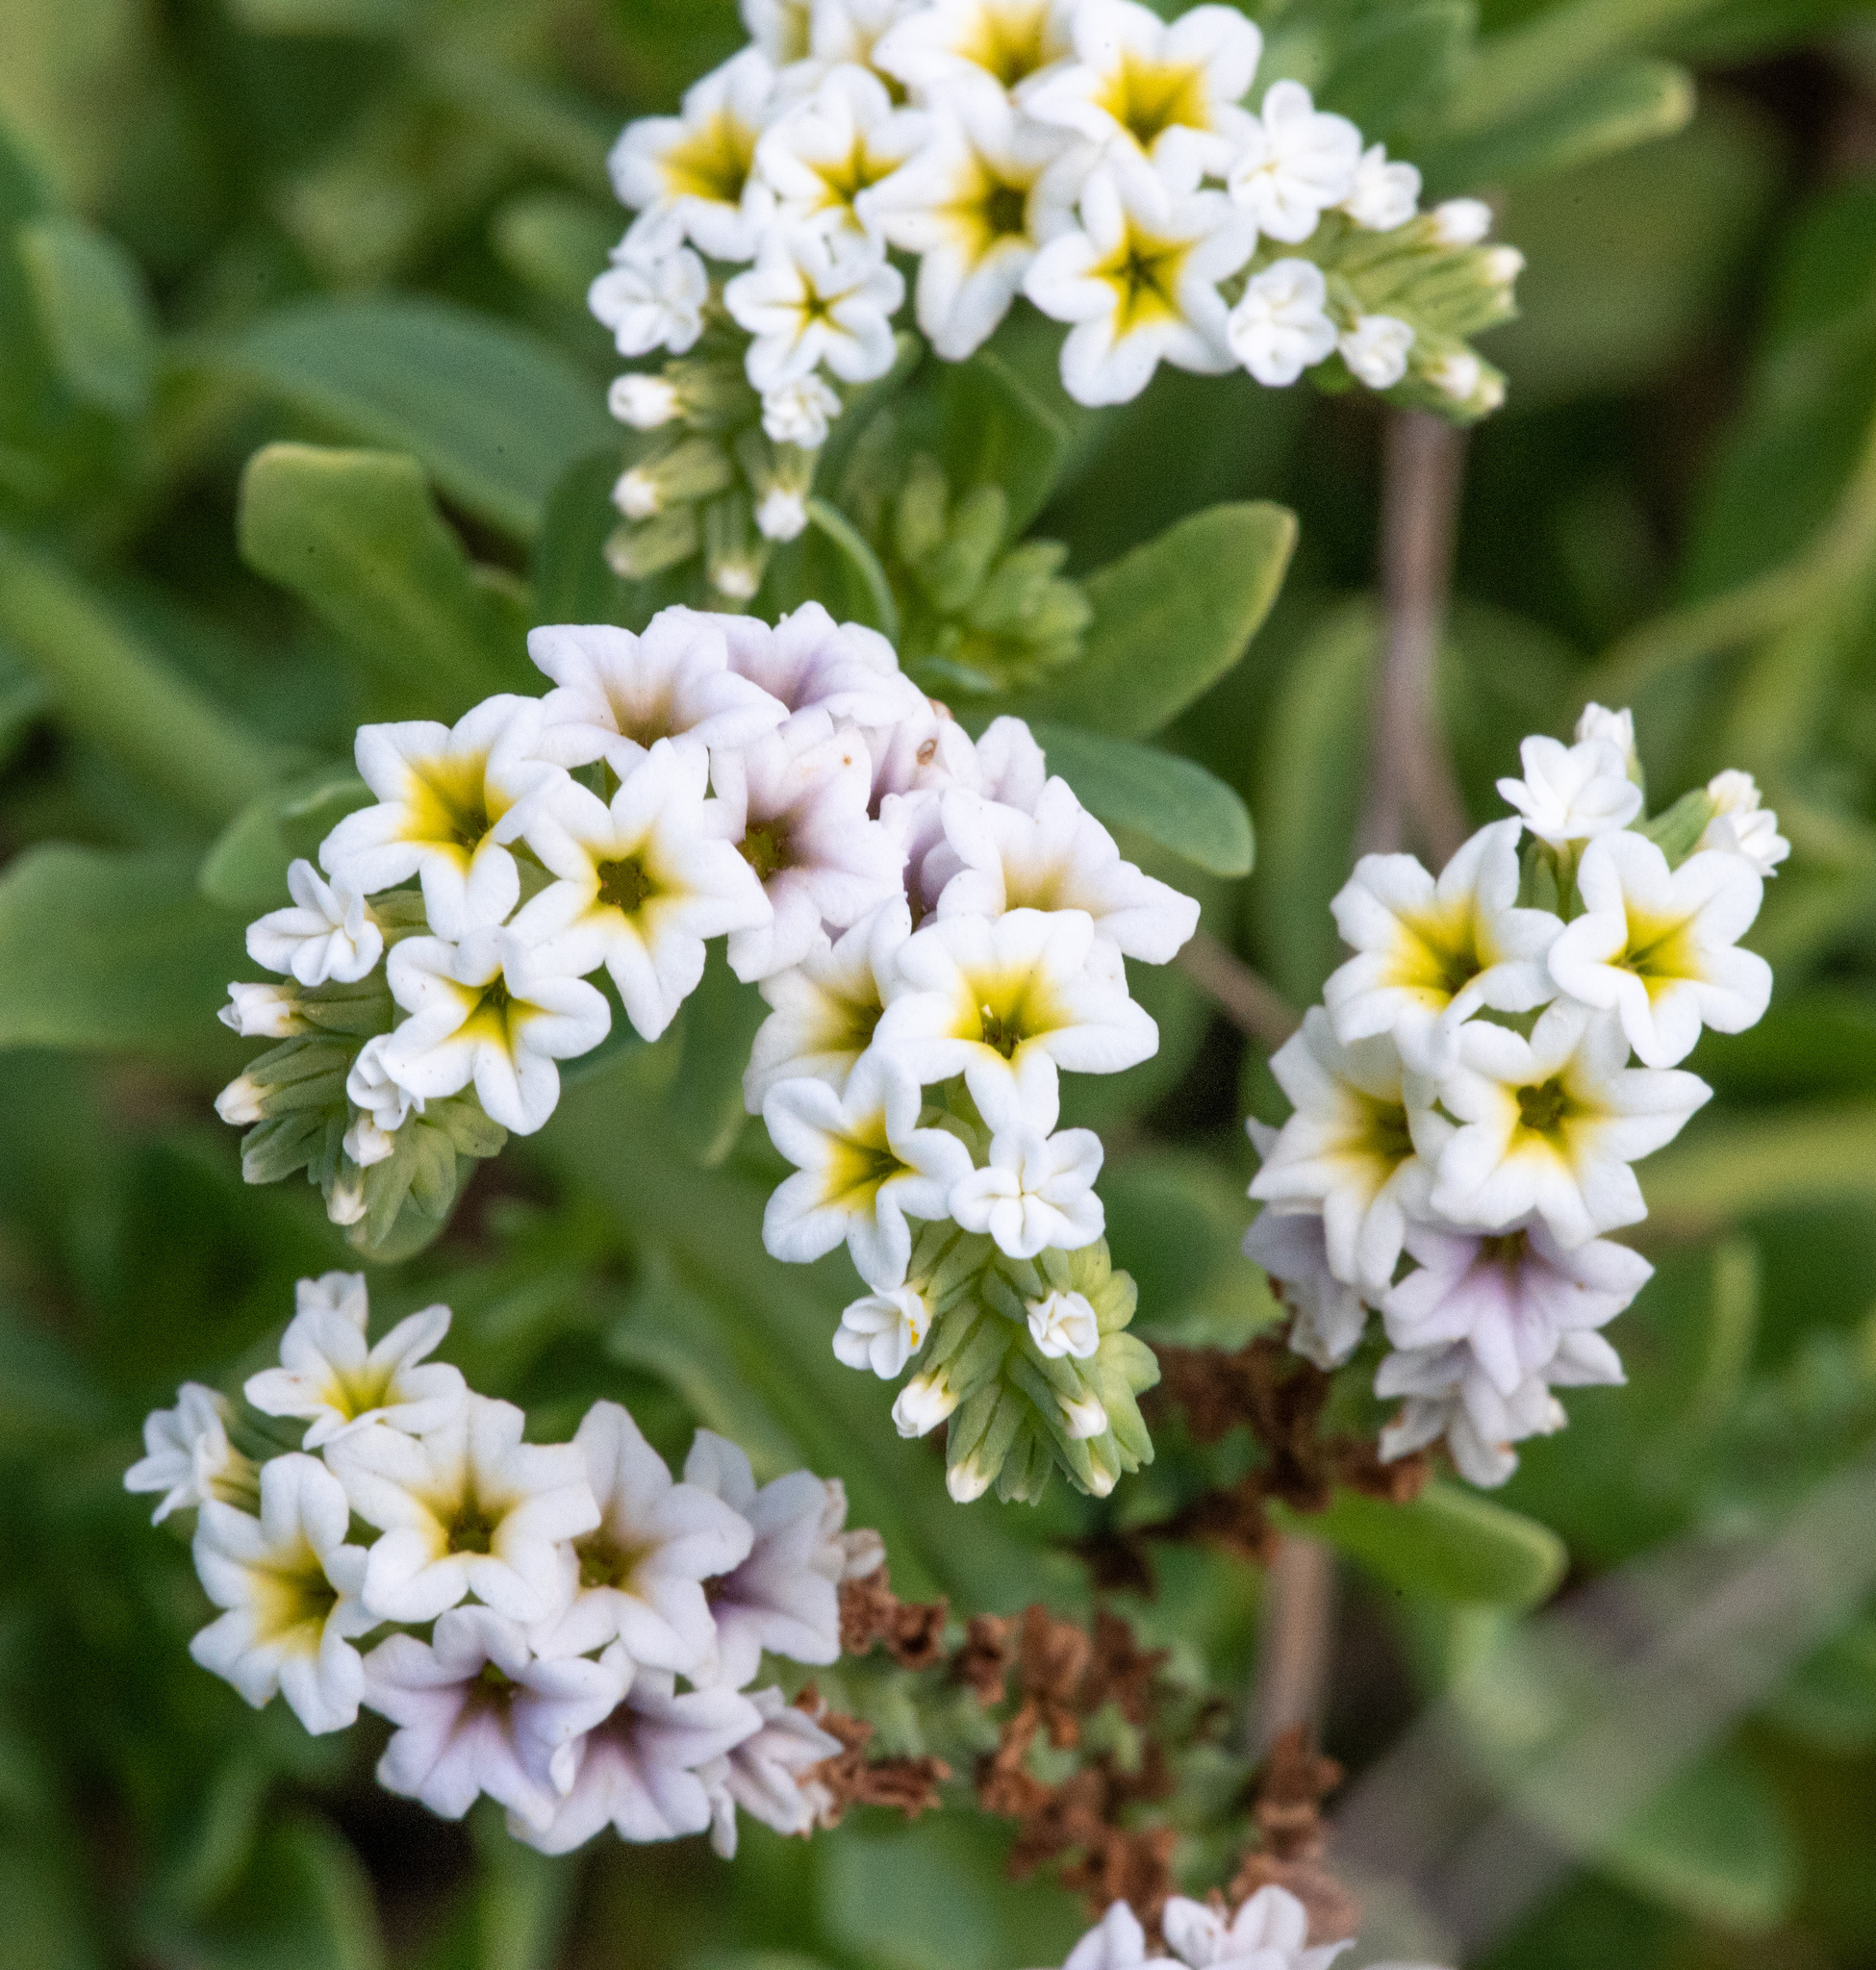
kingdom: Plantae
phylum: Tracheophyta
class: Magnoliopsida
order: Boraginales
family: Heliotropiaceae
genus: Heliotropium
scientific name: Heliotropium curassavicum
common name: Seaside heliotrope
